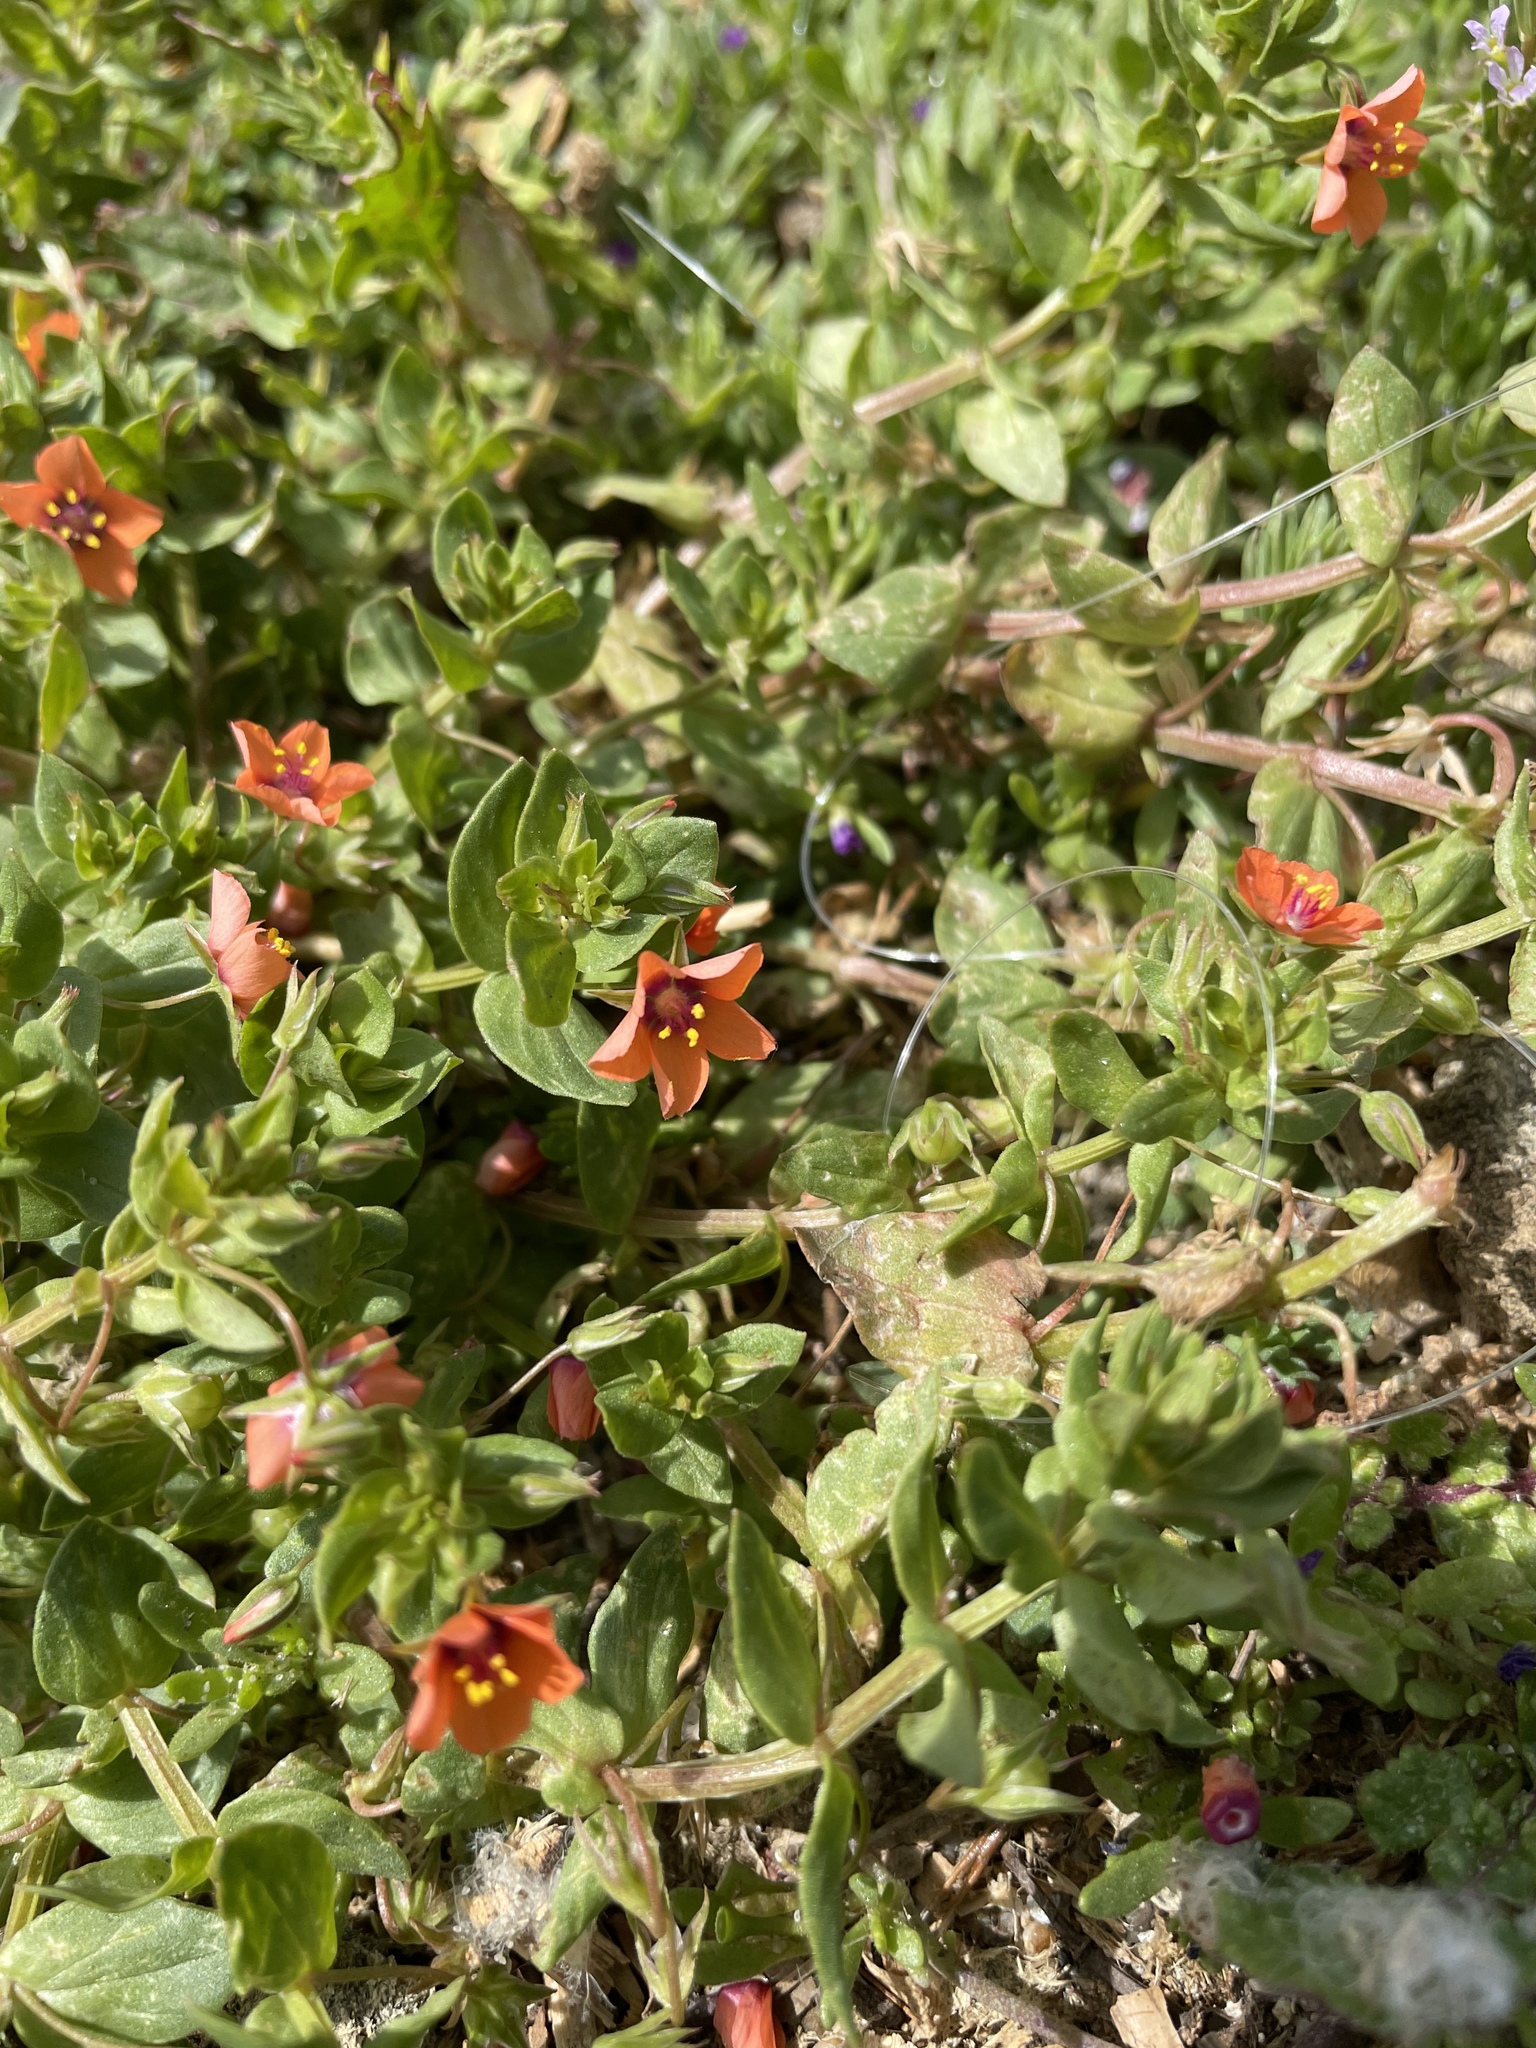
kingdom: Plantae
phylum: Tracheophyta
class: Magnoliopsida
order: Ericales
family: Primulaceae
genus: Lysimachia
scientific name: Lysimachia arvensis
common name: Scarlet pimpernel
